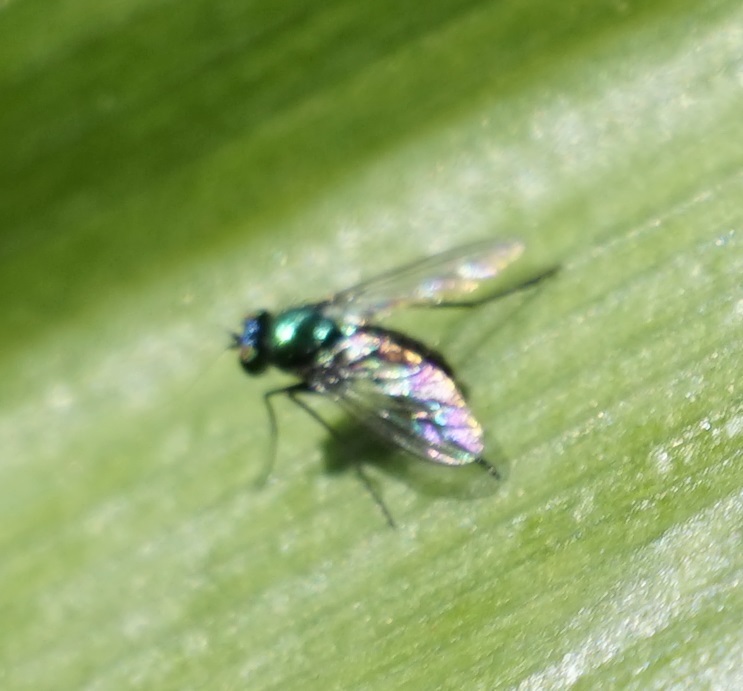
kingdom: Animalia
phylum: Arthropoda
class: Insecta
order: Diptera
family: Dolichopodidae
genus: Parentia
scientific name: Parentia vulgaris
